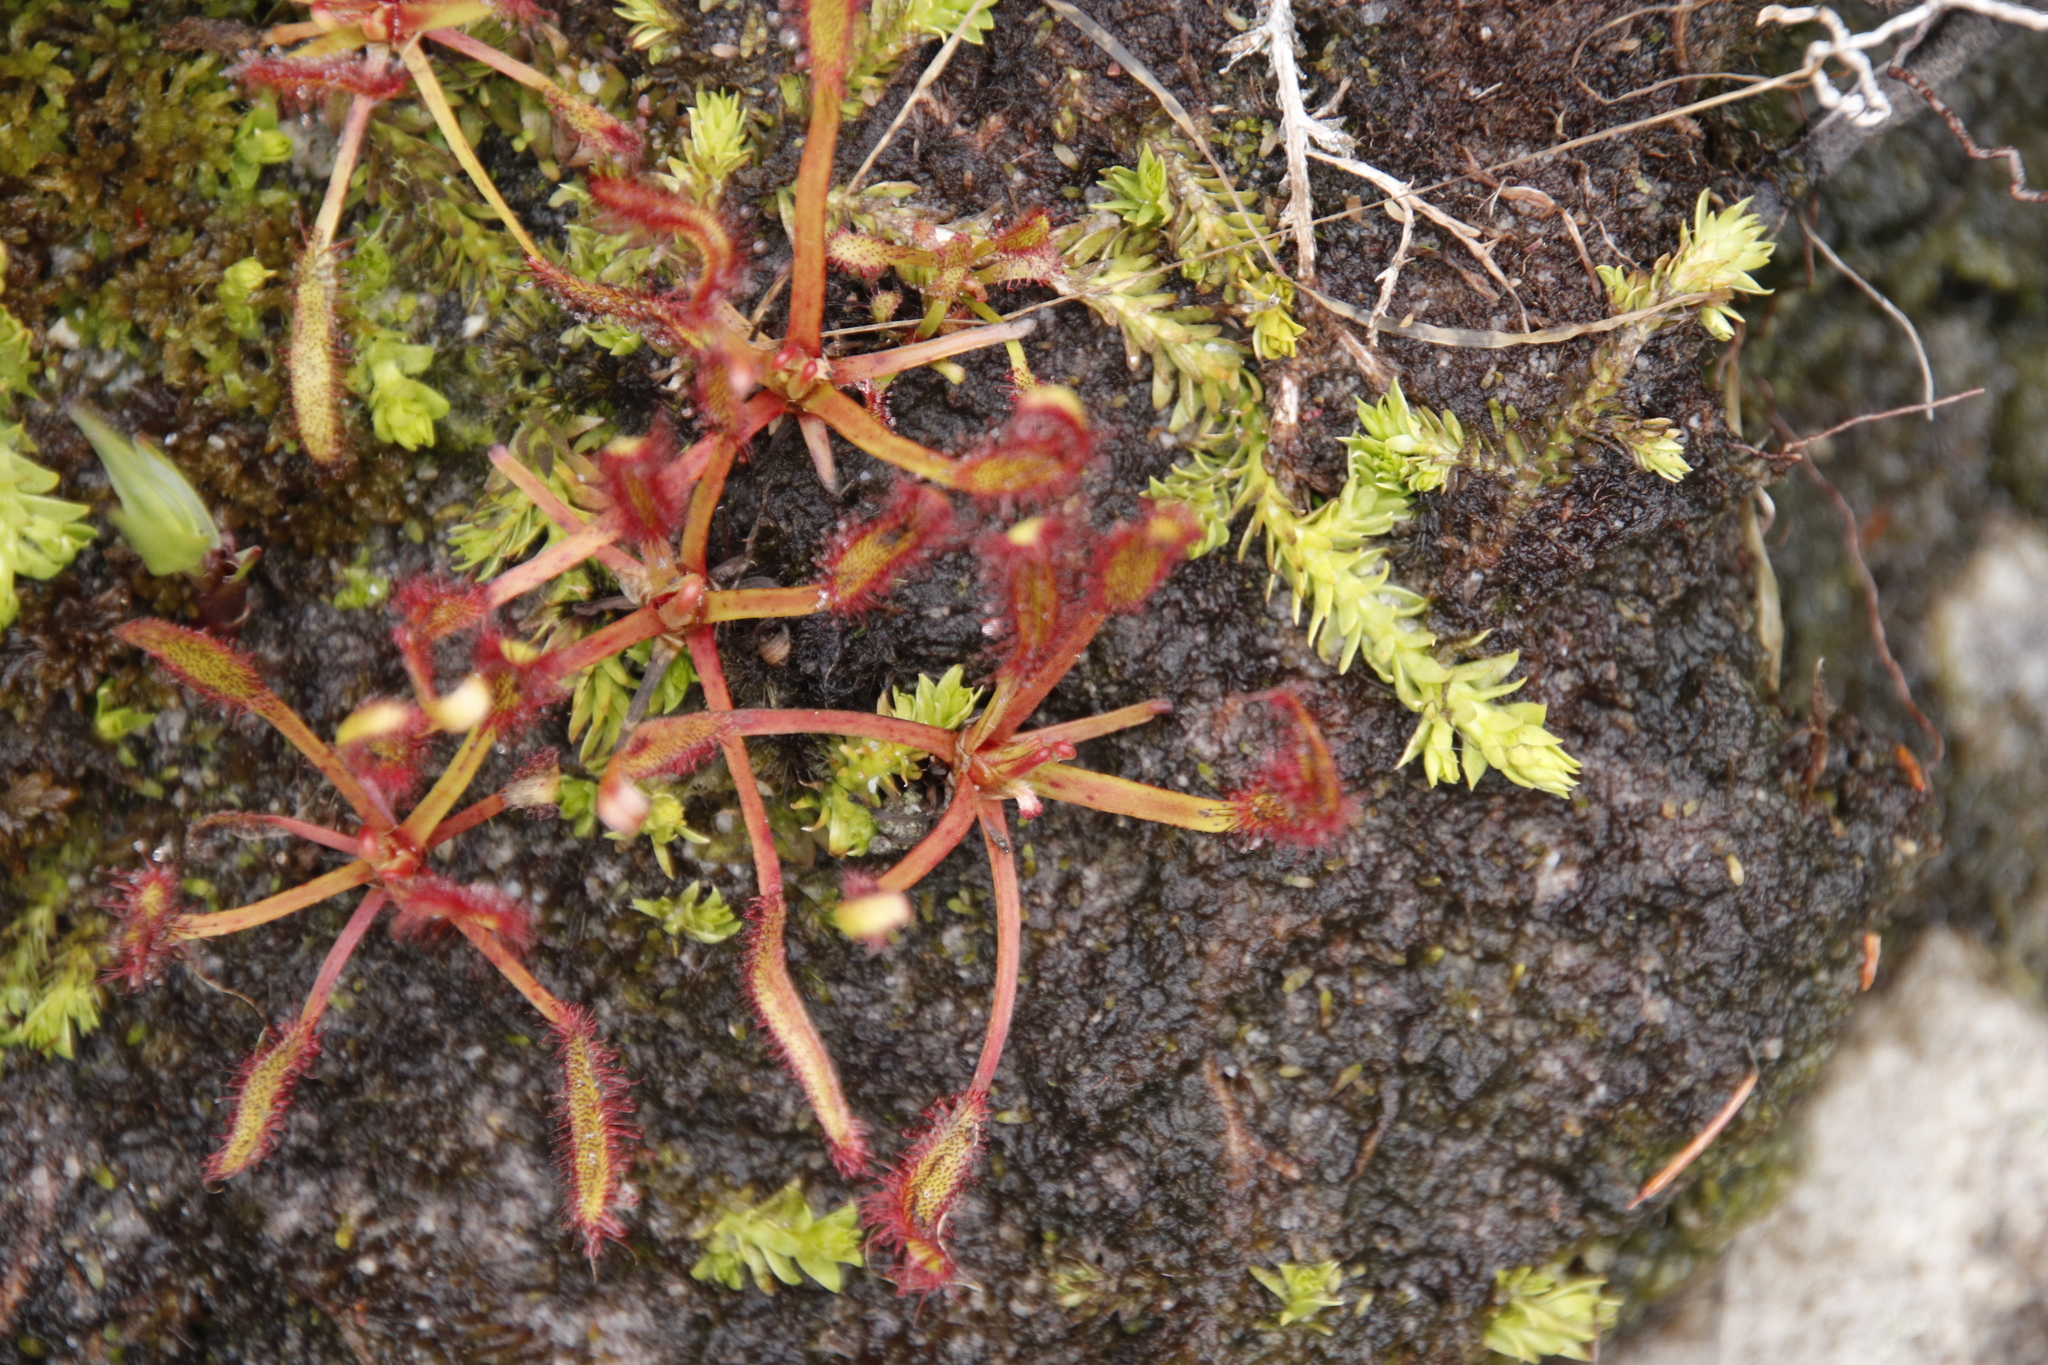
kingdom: Plantae
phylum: Tracheophyta
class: Magnoliopsida
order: Caryophyllales
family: Droseraceae
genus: Drosera
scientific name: Drosera capensis
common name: Cape sundew
